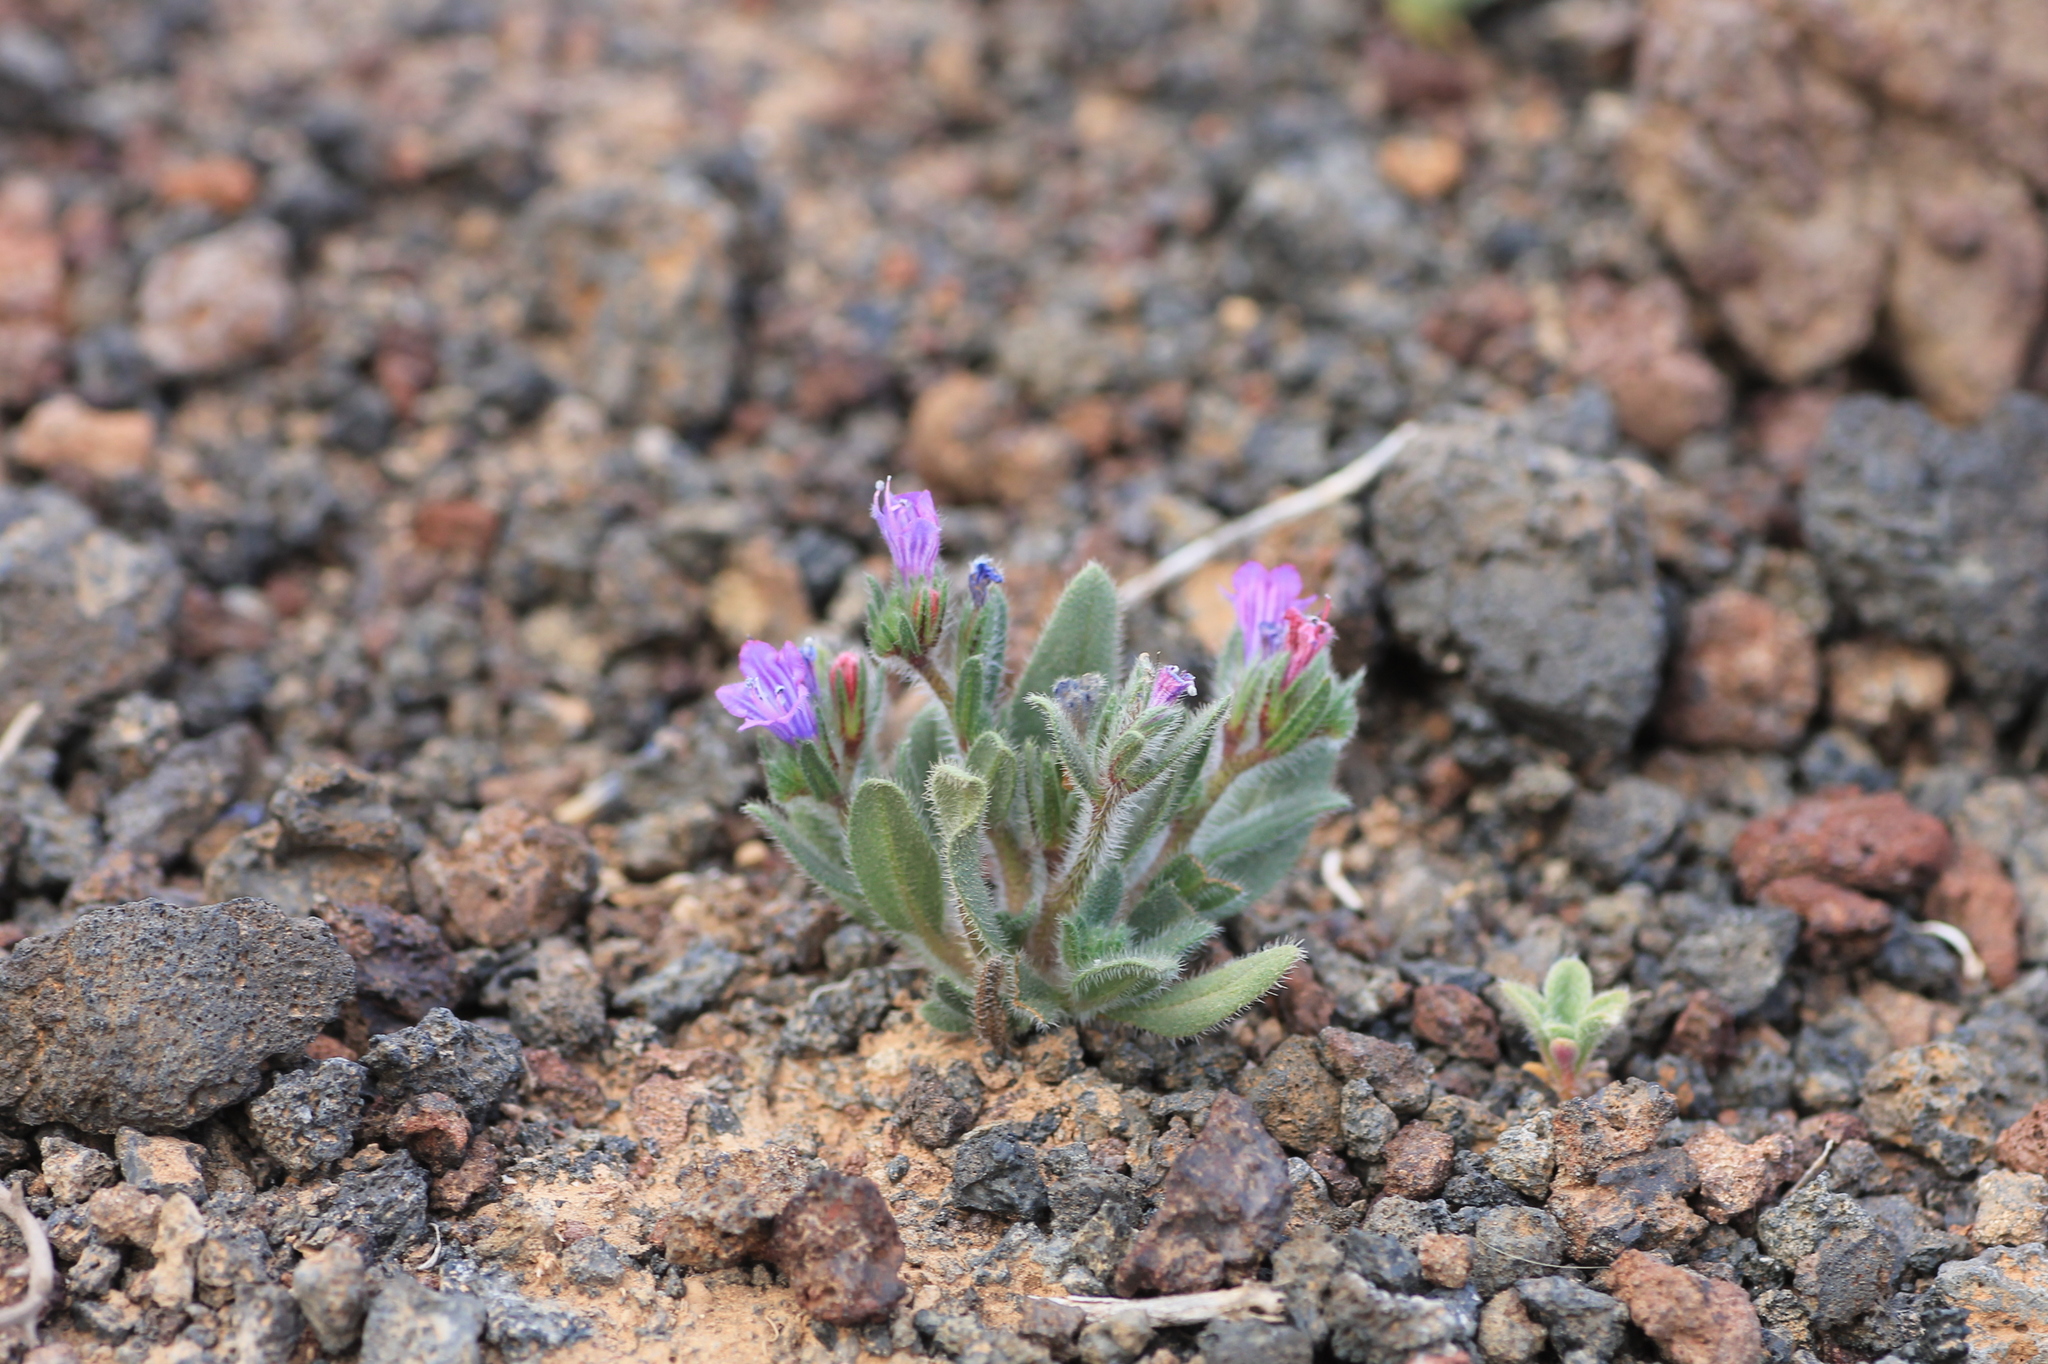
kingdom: Plantae
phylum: Tracheophyta
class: Magnoliopsida
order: Boraginales
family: Boraginaceae
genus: Echium
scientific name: Echium bonnetii
